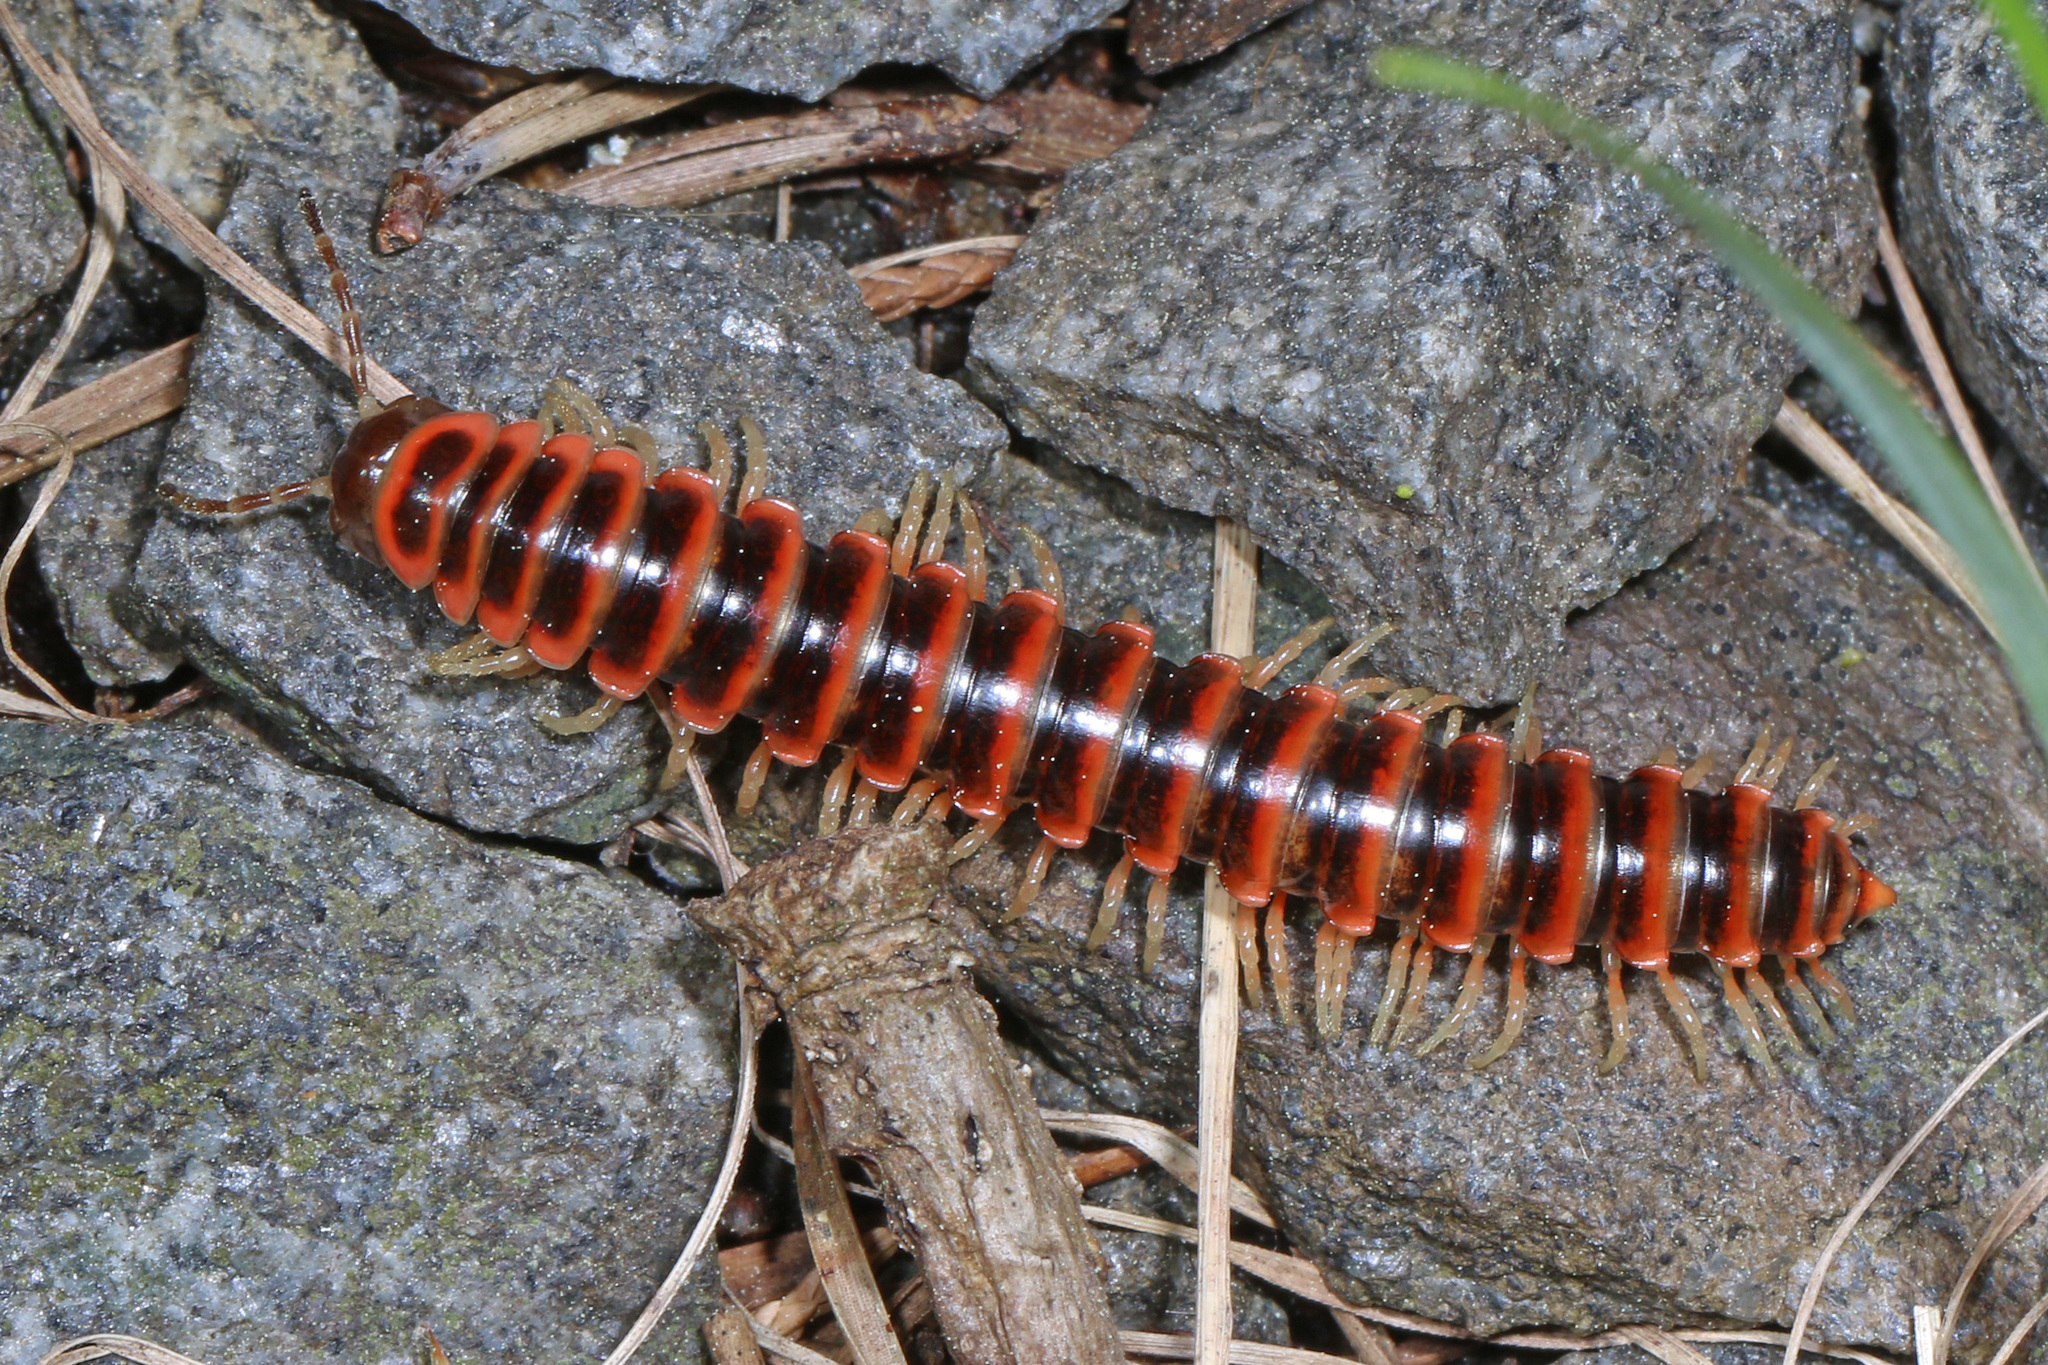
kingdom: Animalia
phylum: Arthropoda
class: Diplopoda
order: Polydesmida
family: Xystodesmidae
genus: Semionellus
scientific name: Semionellus placidus
